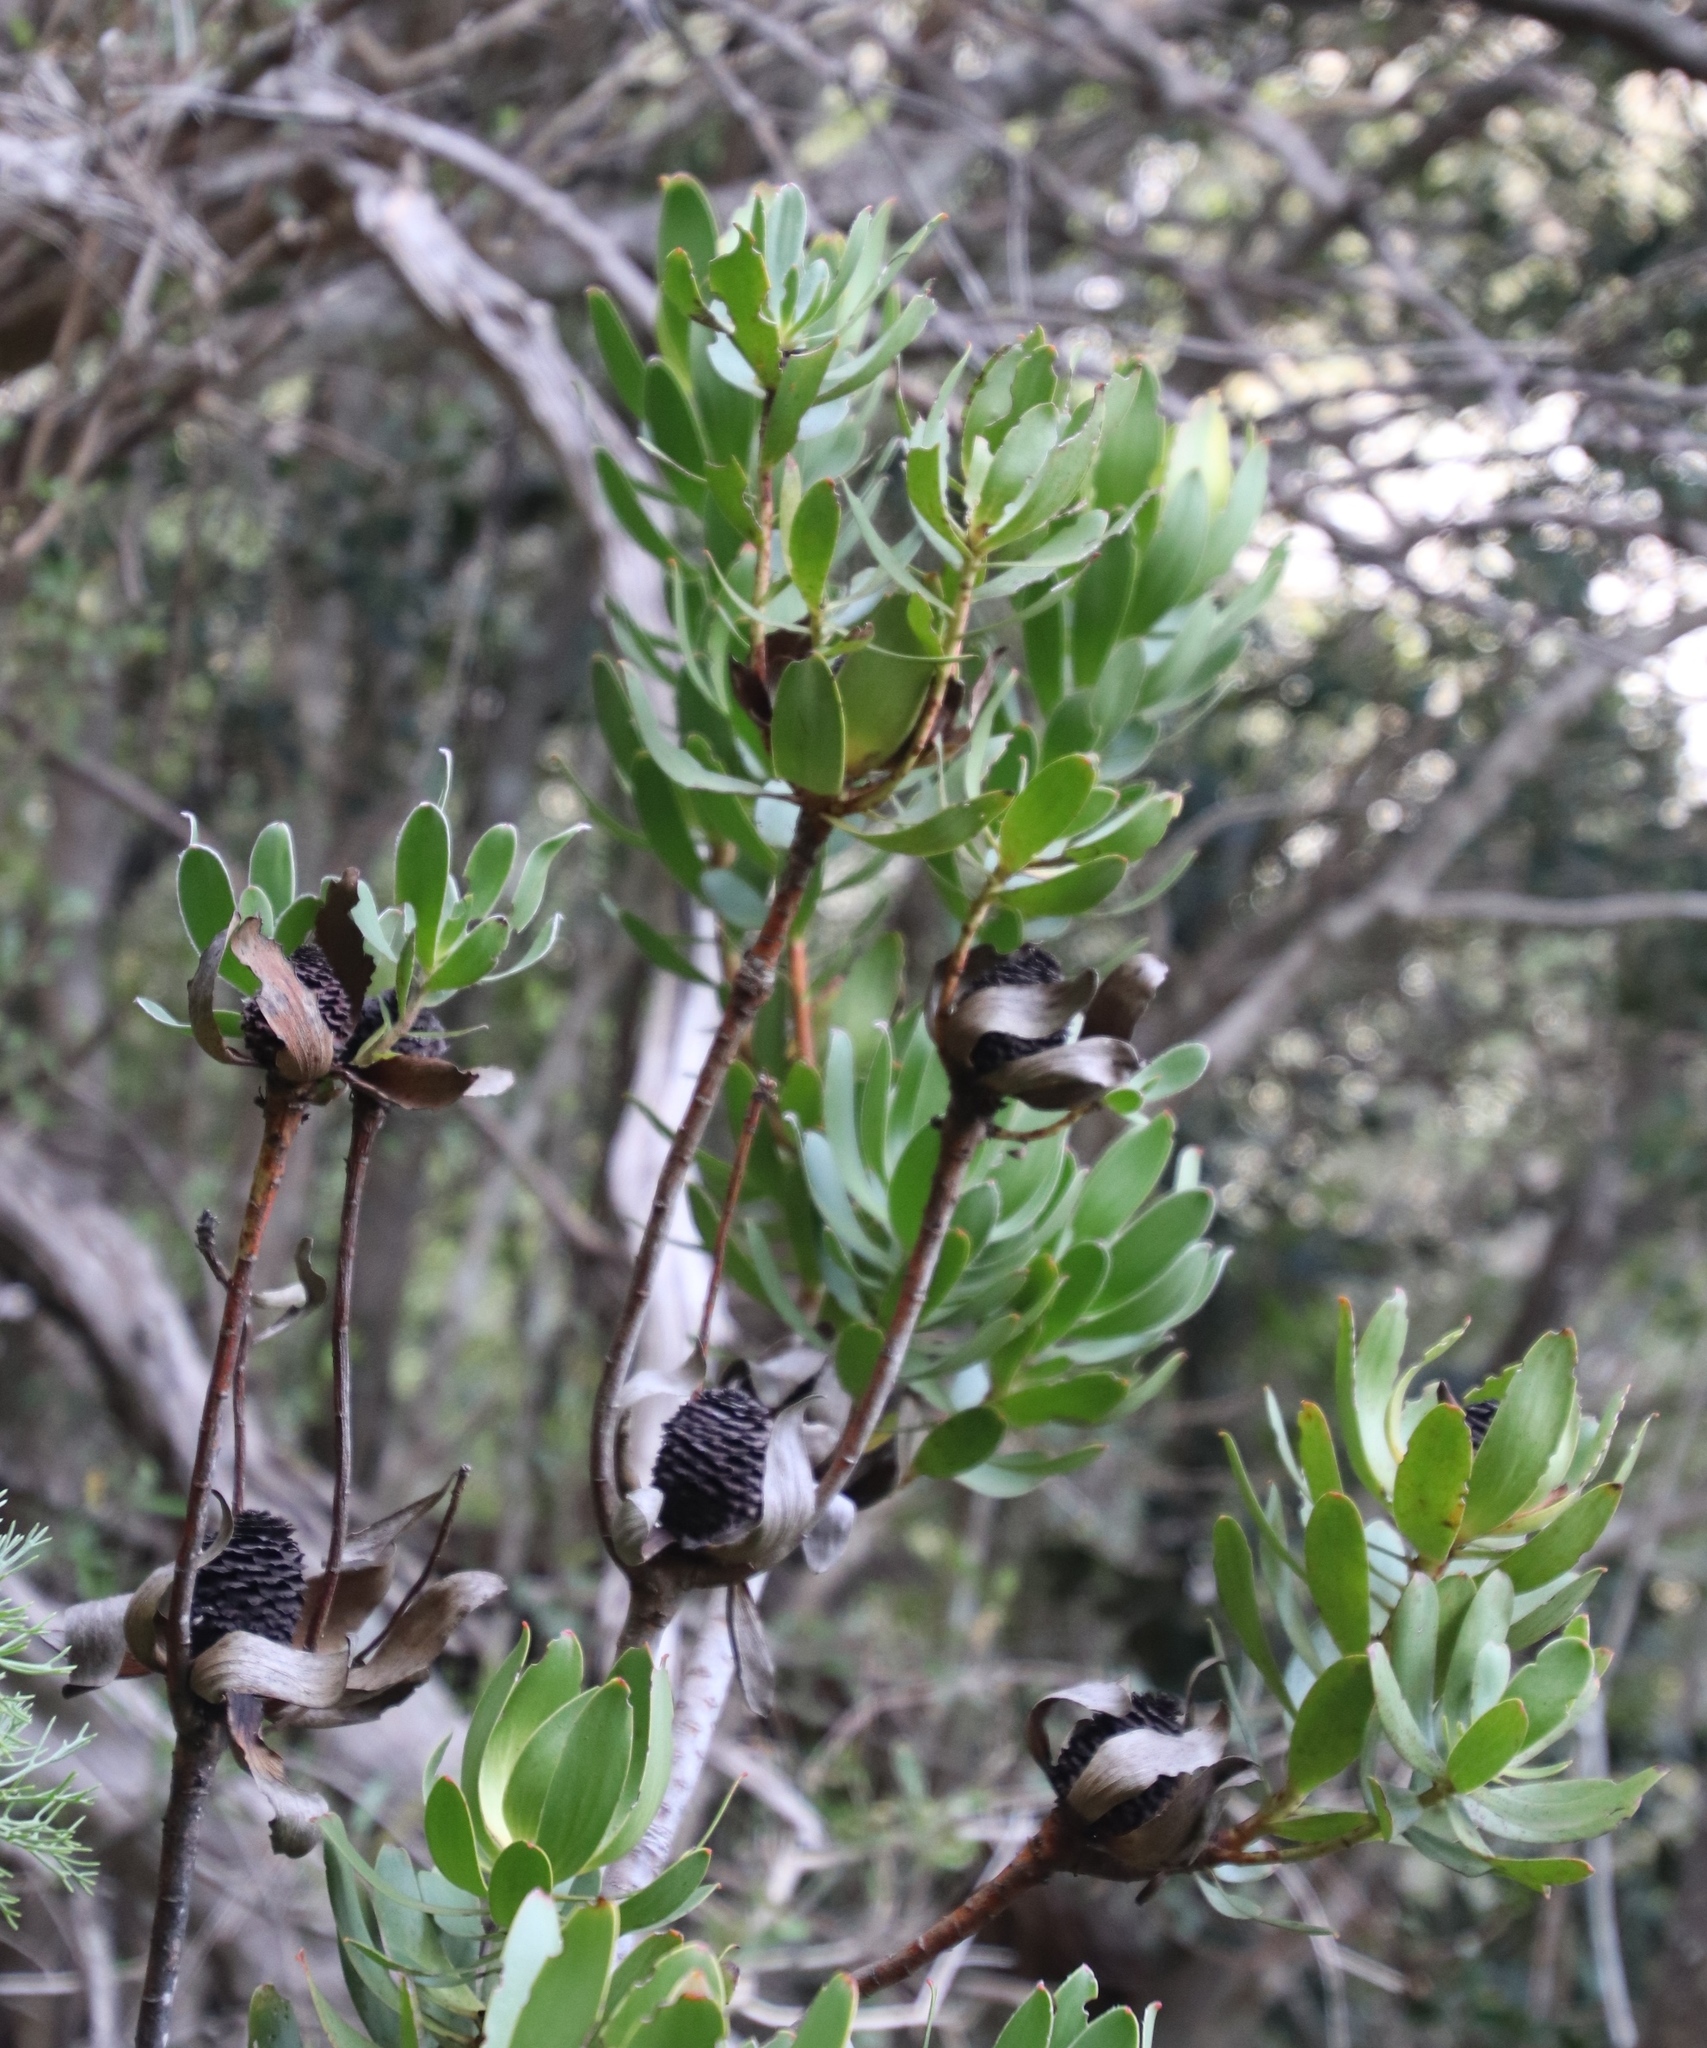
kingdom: Plantae
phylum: Tracheophyta
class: Magnoliopsida
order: Proteales
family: Proteaceae
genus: Leucadendron
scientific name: Leucadendron strobilinum
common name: Mountain rose
